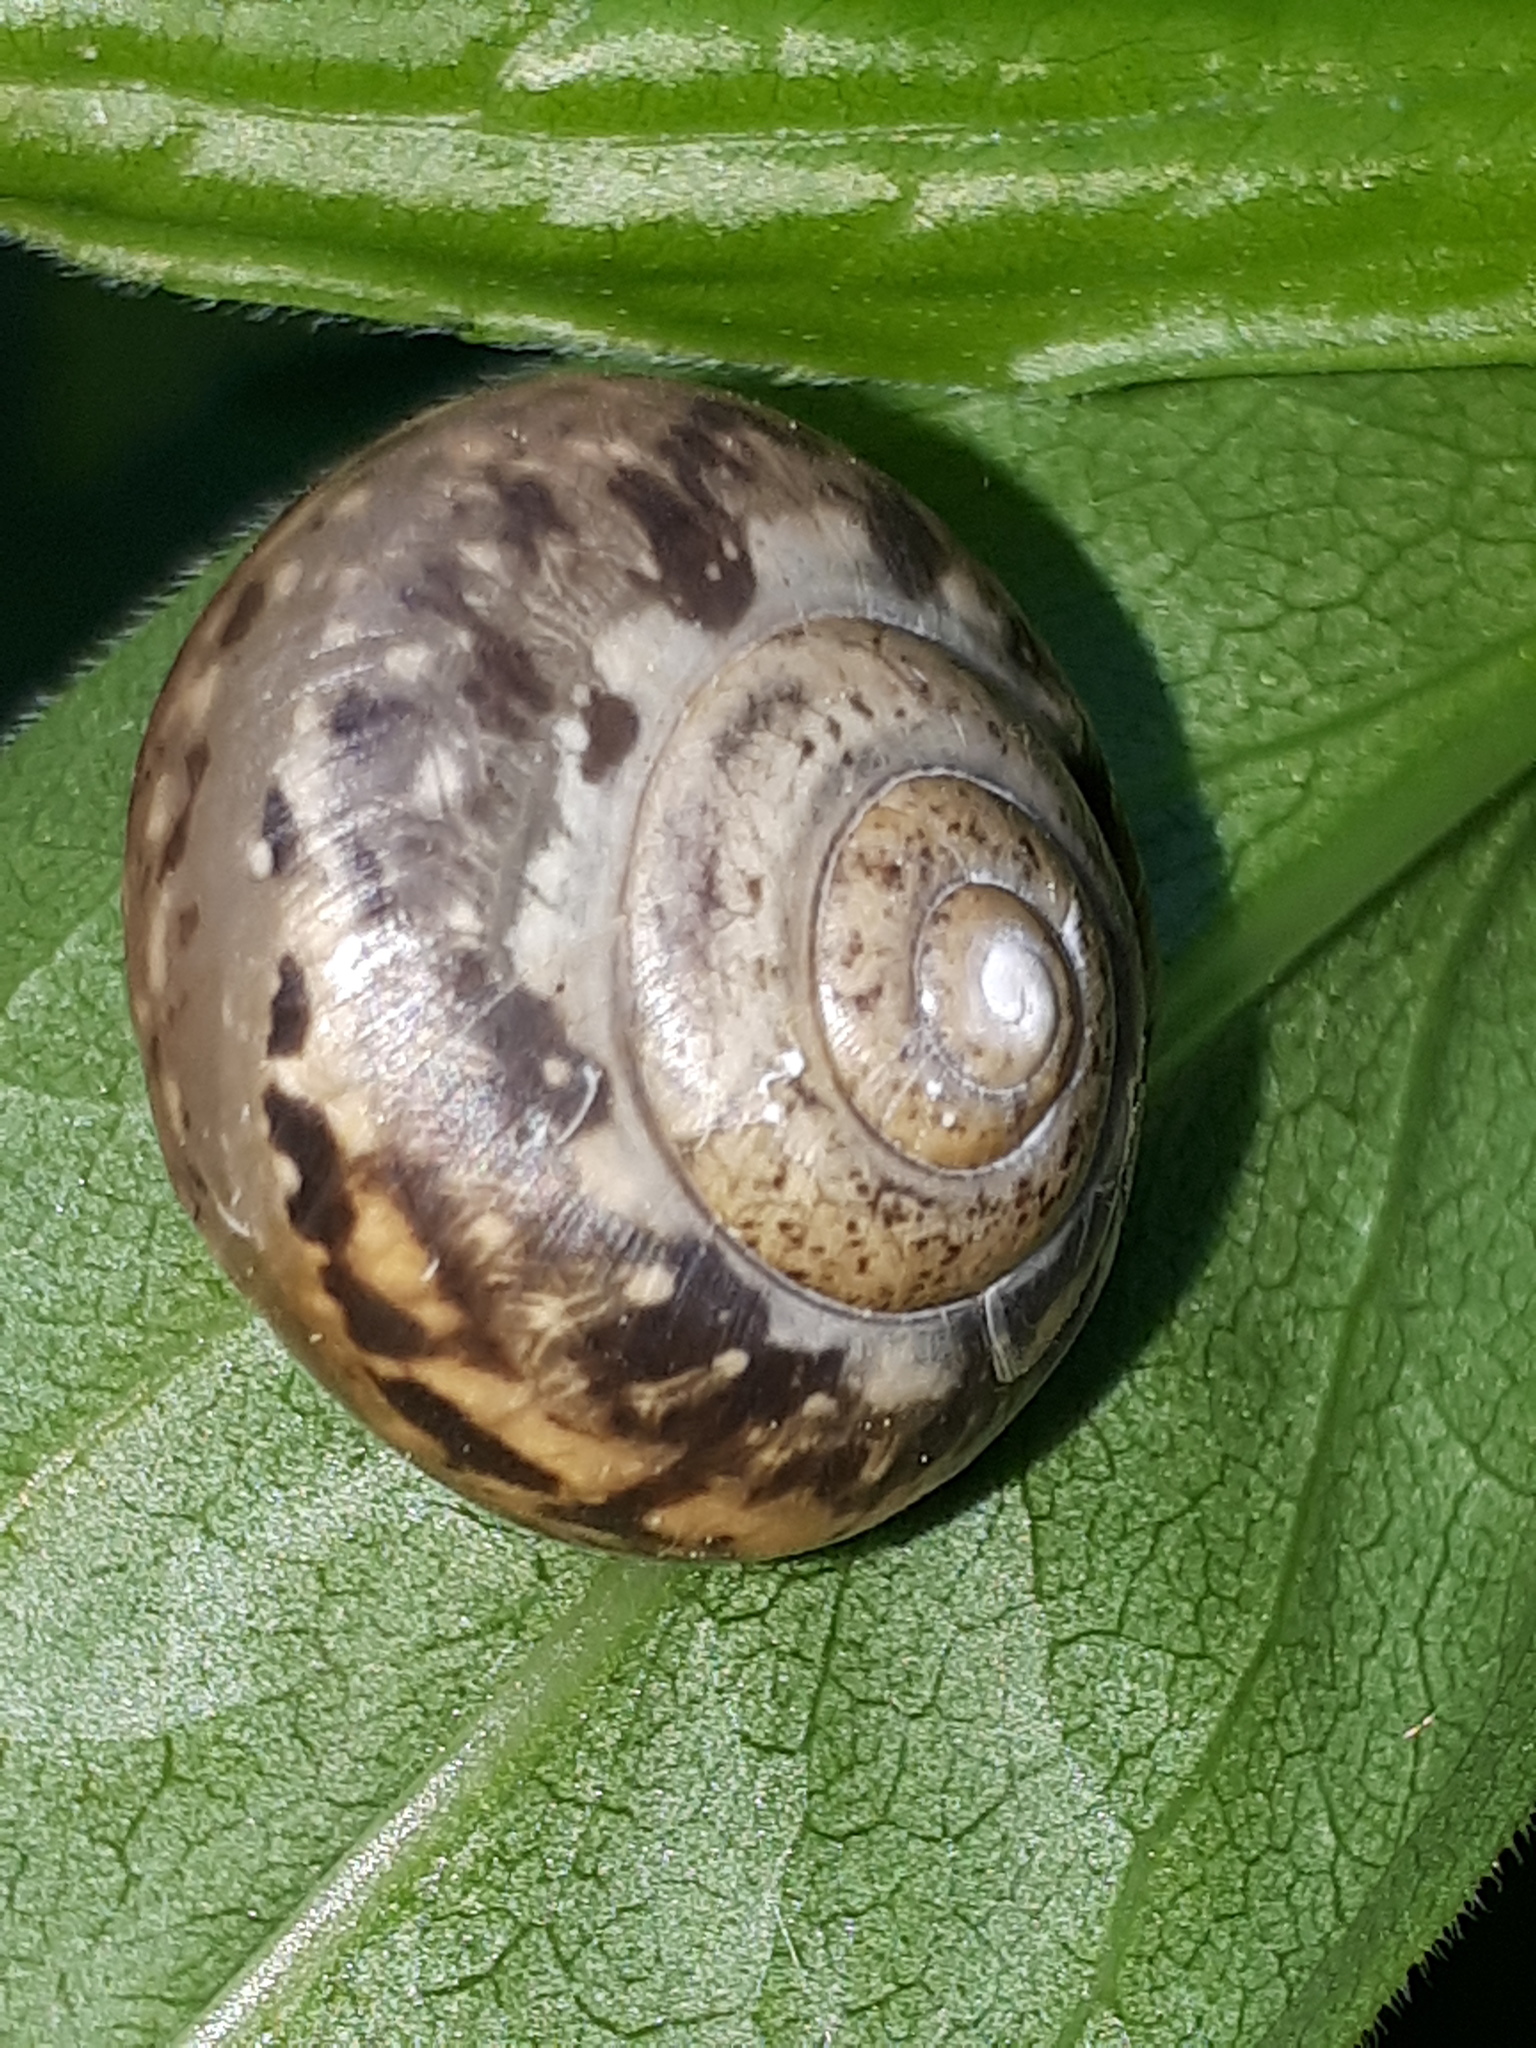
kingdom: Animalia
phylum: Mollusca
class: Gastropoda
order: Stylommatophora
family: Camaenidae
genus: Fruticicola
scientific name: Fruticicola fruticum
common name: Bush snail
